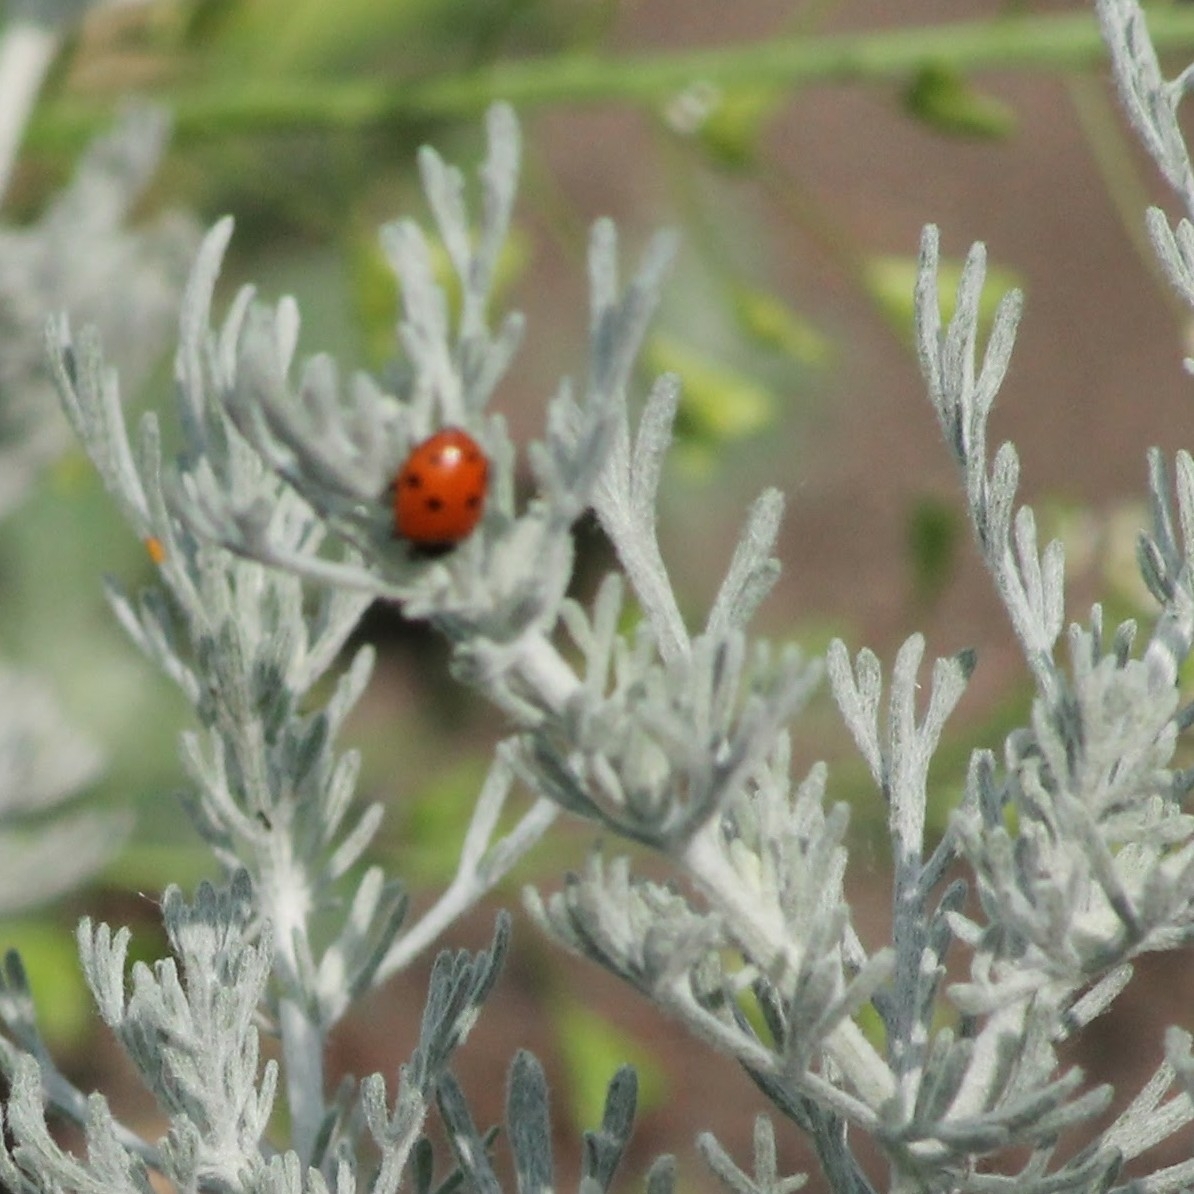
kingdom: Animalia
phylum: Arthropoda
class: Insecta
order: Coleoptera
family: Coccinellidae
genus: Hippodamia
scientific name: Hippodamia variegata
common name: Ladybird beetle
